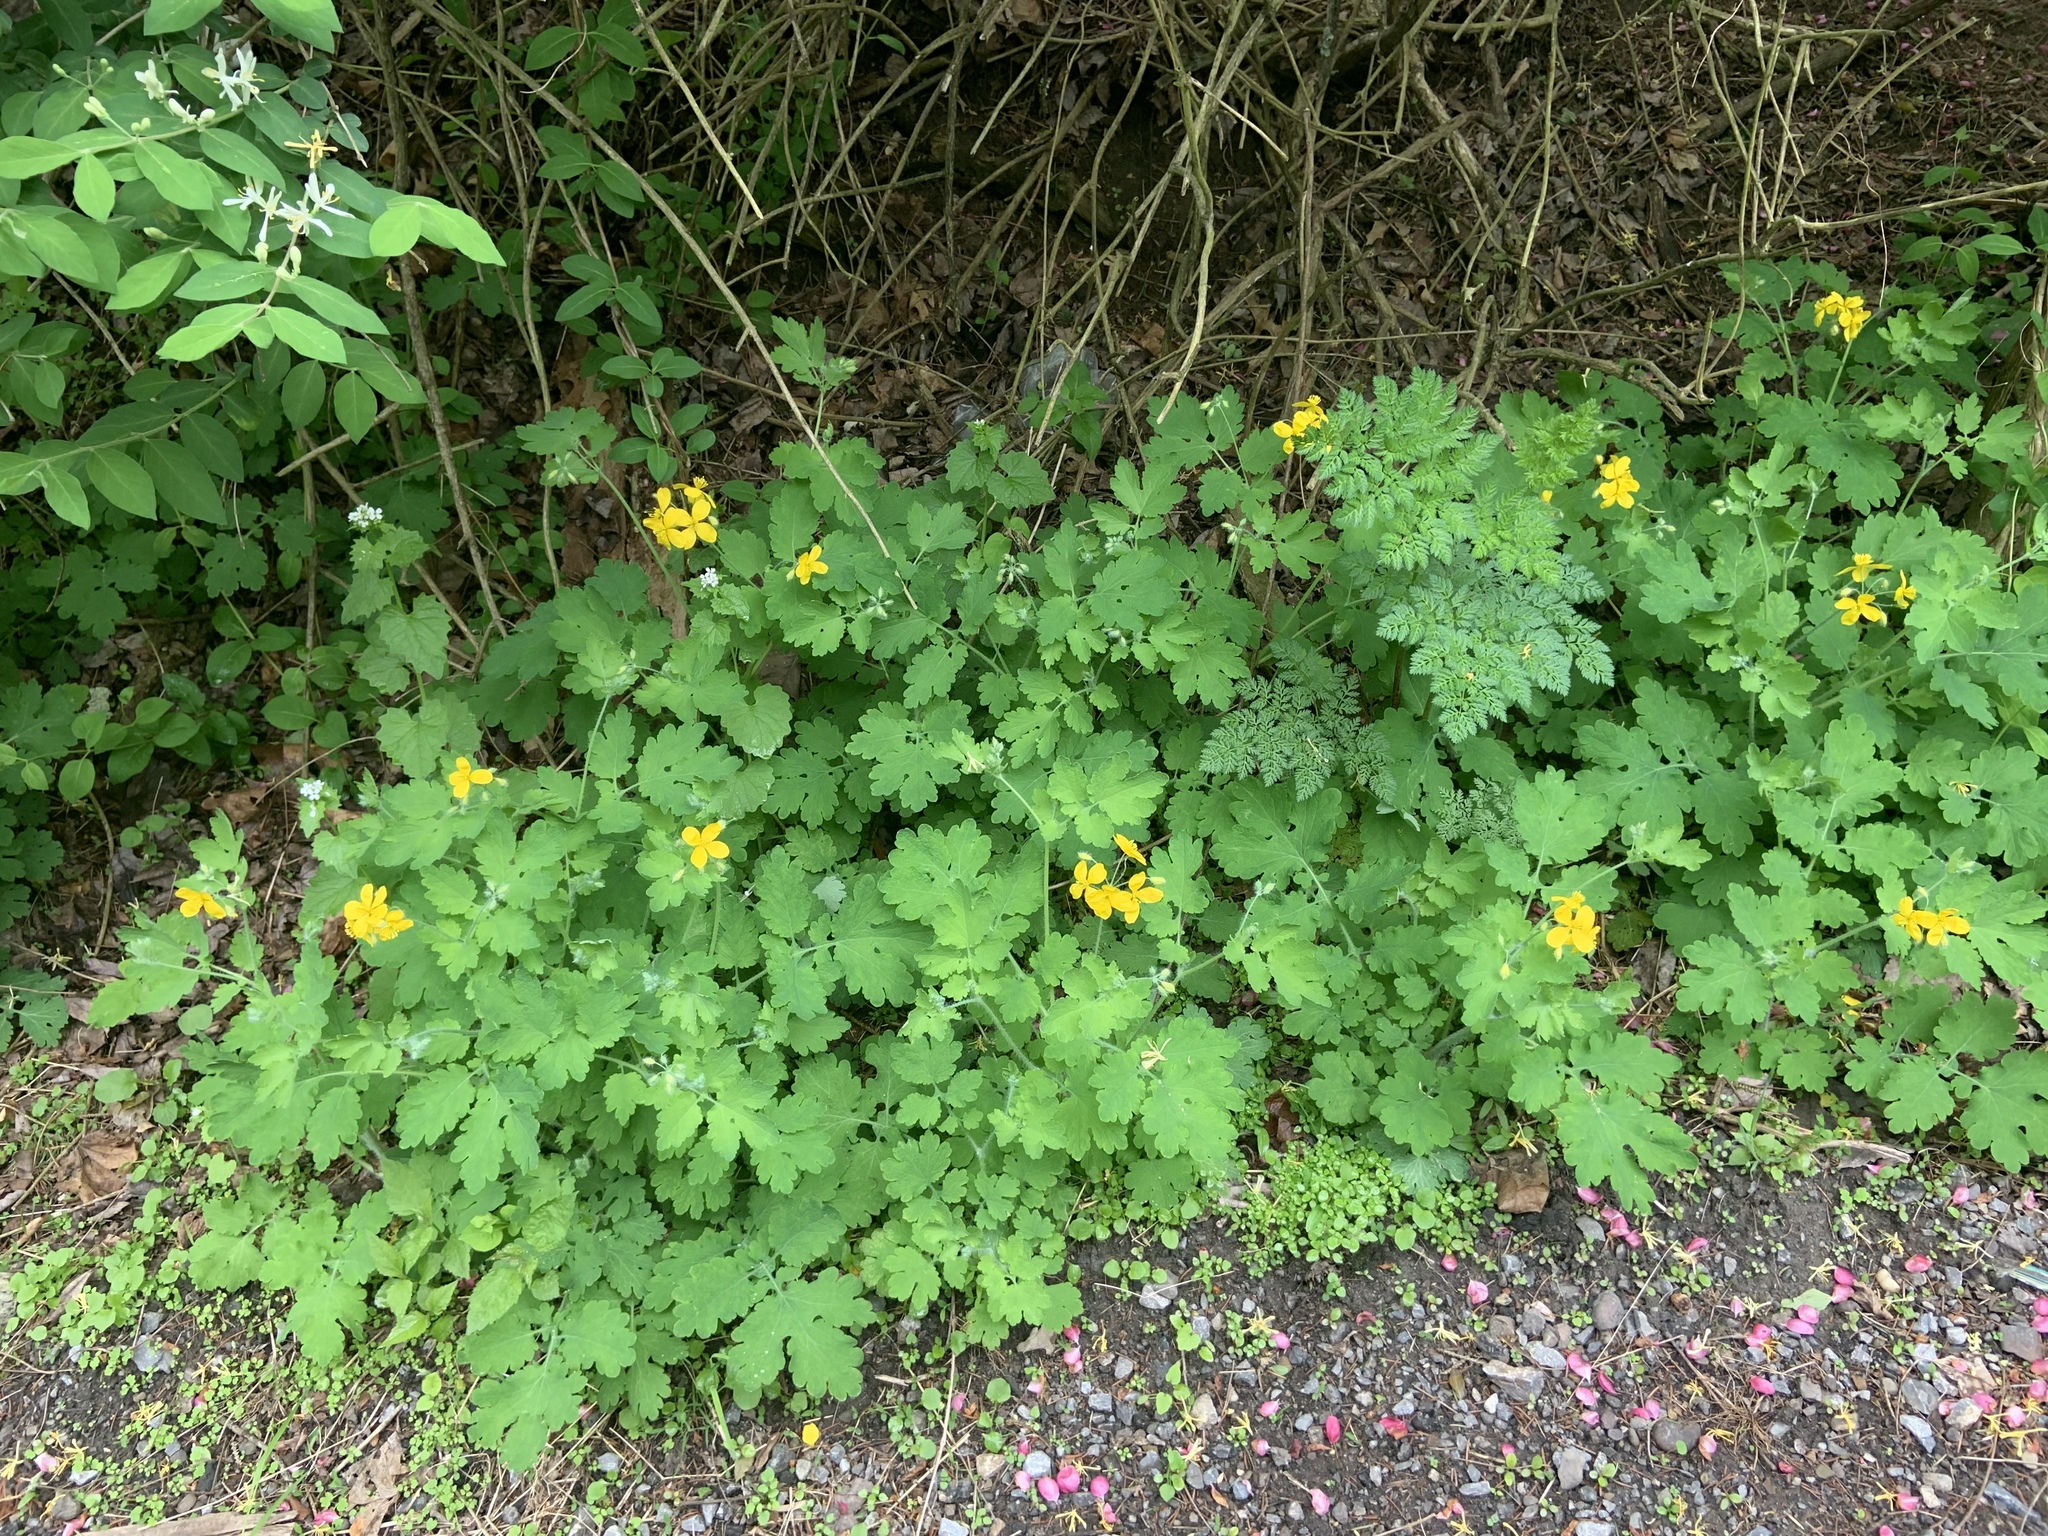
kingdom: Plantae
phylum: Tracheophyta
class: Magnoliopsida
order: Ranunculales
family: Papaveraceae
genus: Chelidonium
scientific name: Chelidonium majus
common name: Greater celandine
